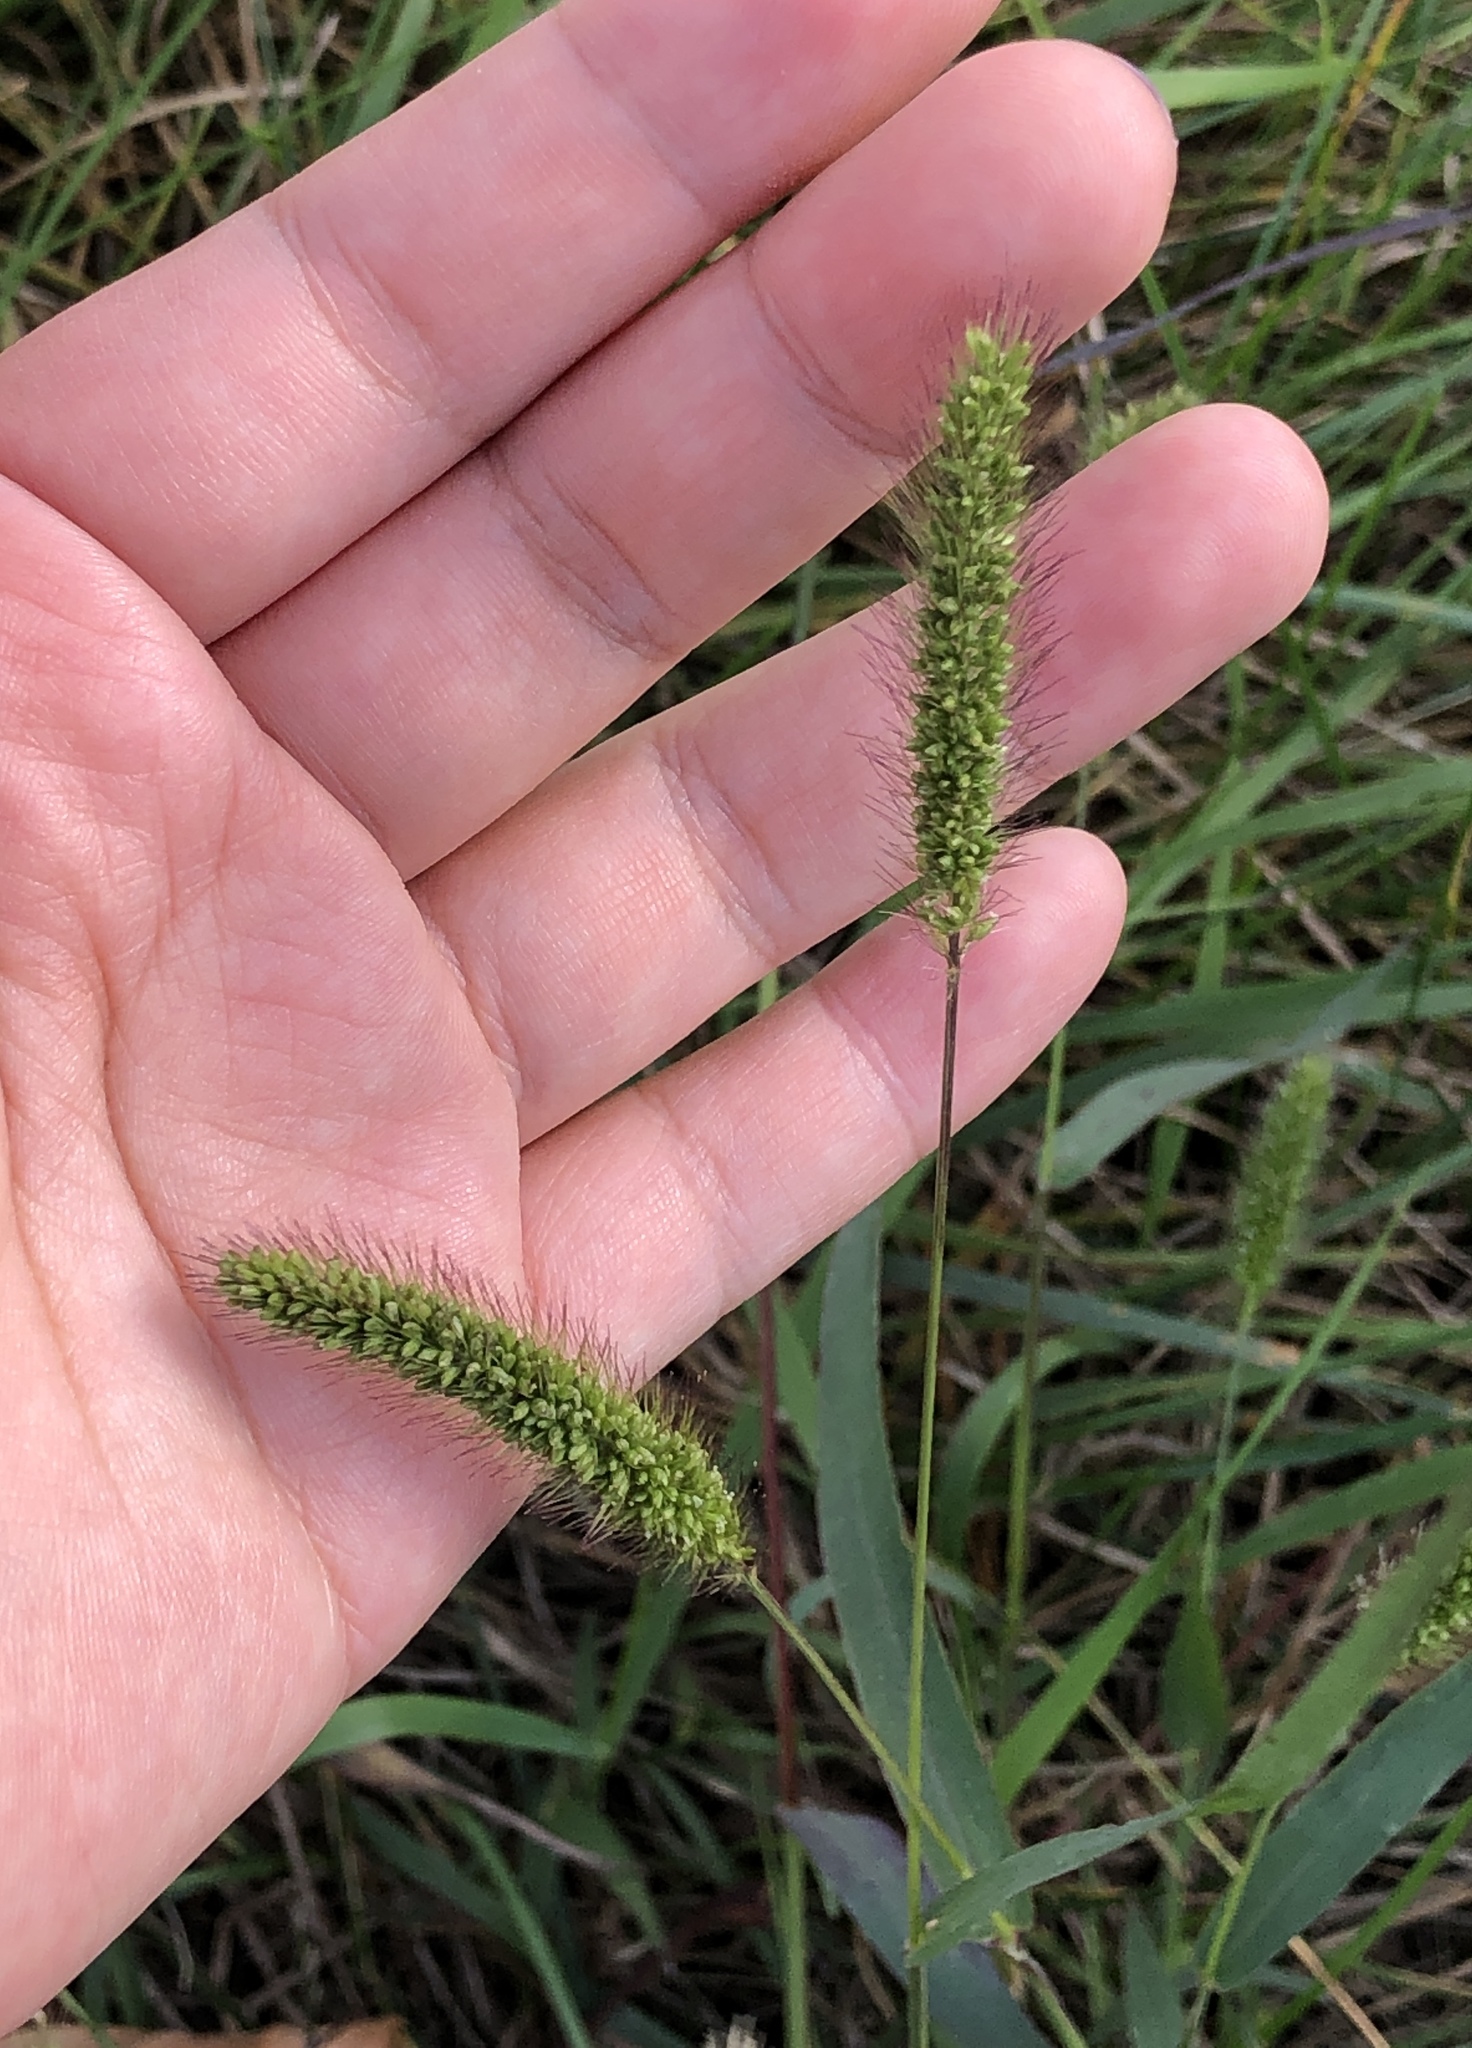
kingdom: Plantae
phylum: Tracheophyta
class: Liliopsida
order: Poales
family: Poaceae
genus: Setaria
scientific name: Setaria viridis
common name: Green bristlegrass
